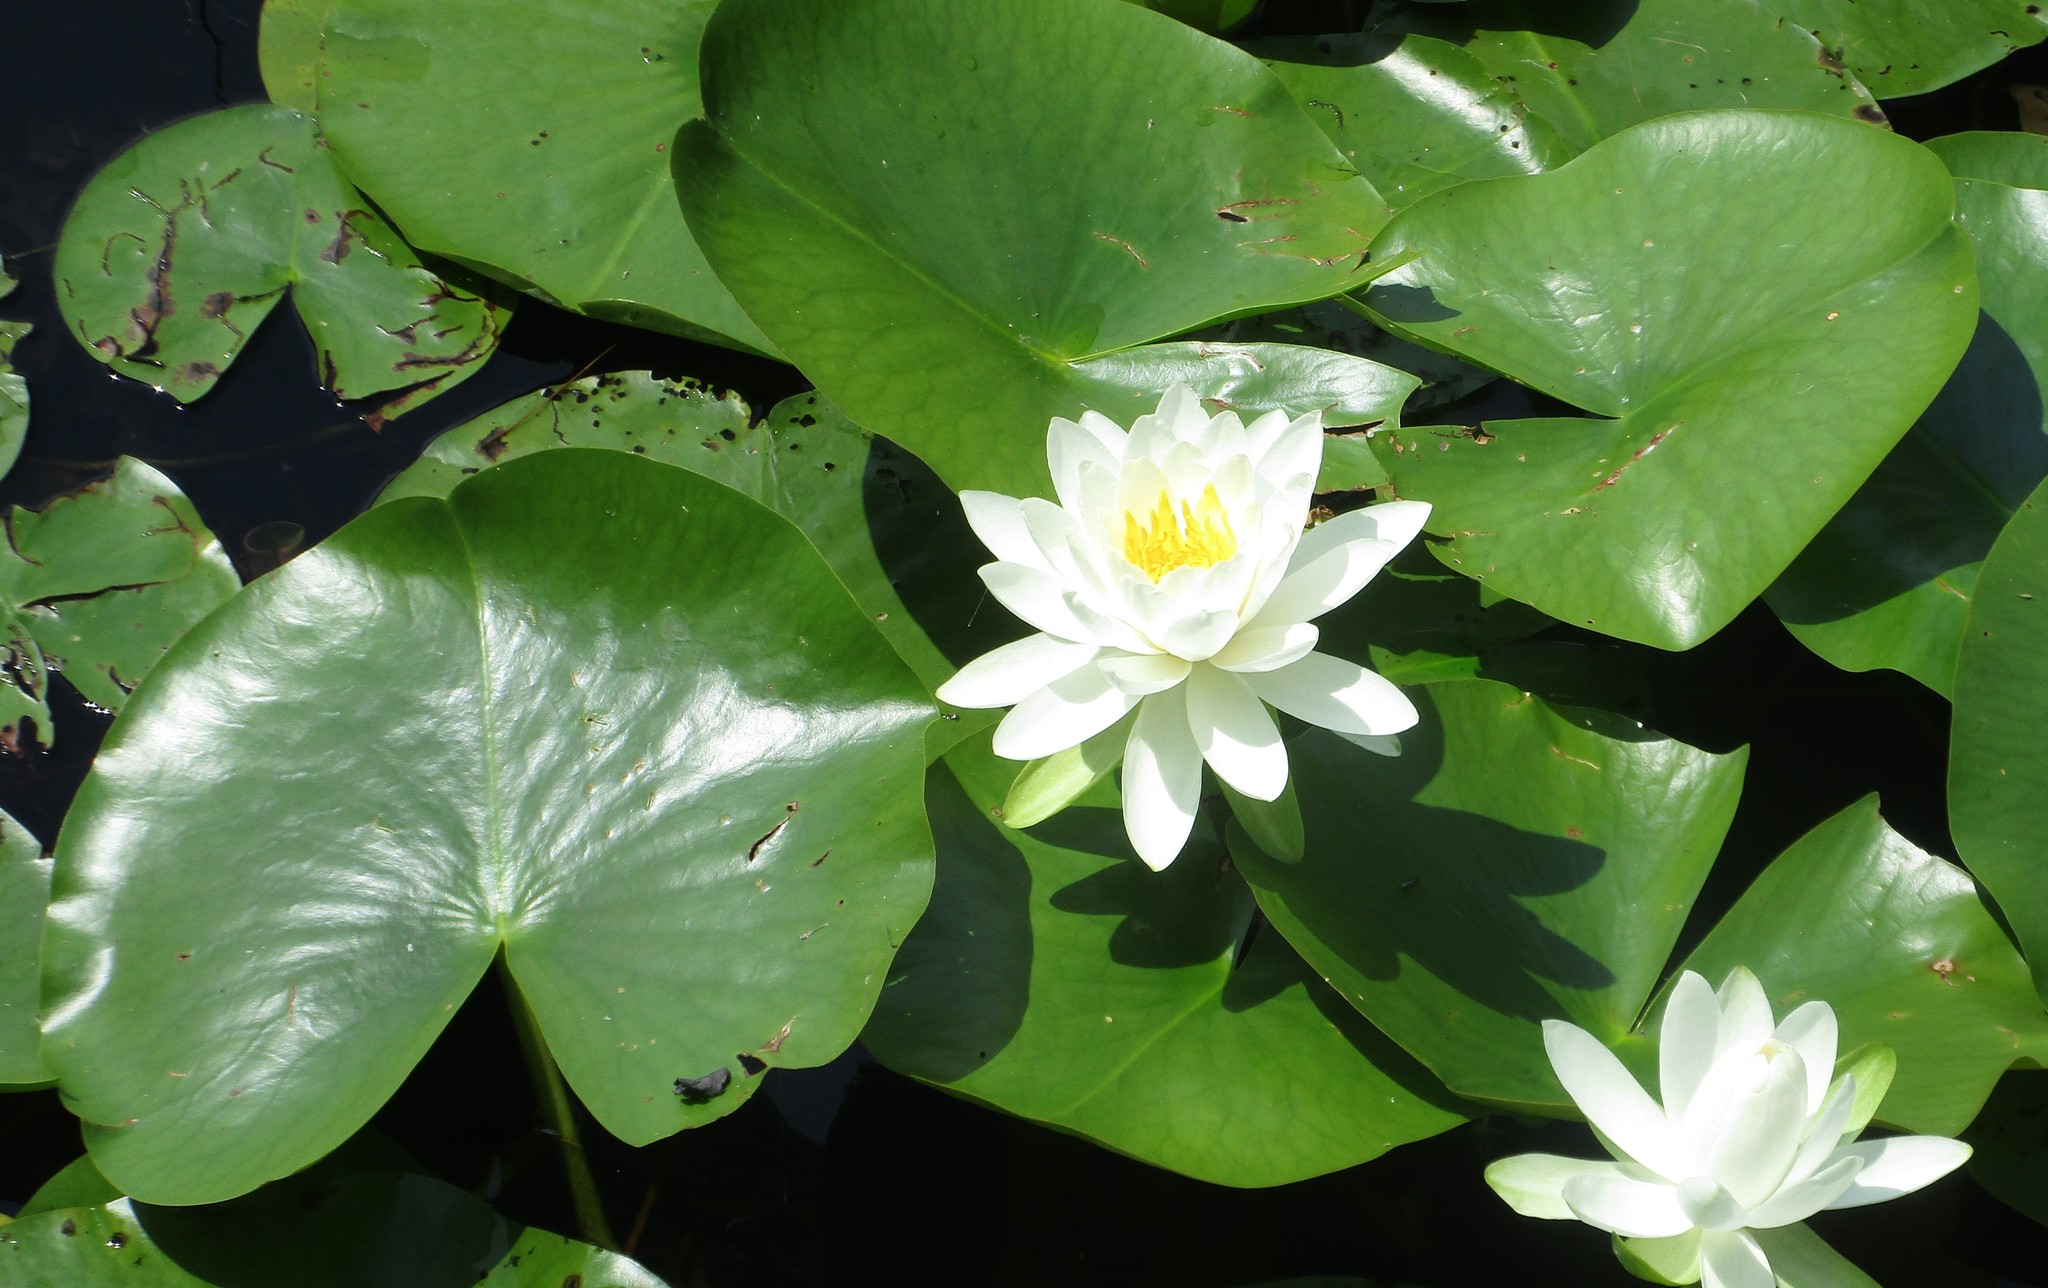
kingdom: Plantae
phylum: Tracheophyta
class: Magnoliopsida
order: Nymphaeales
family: Nymphaeaceae
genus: Nymphaea
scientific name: Nymphaea odorata
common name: Fragrant water-lily
